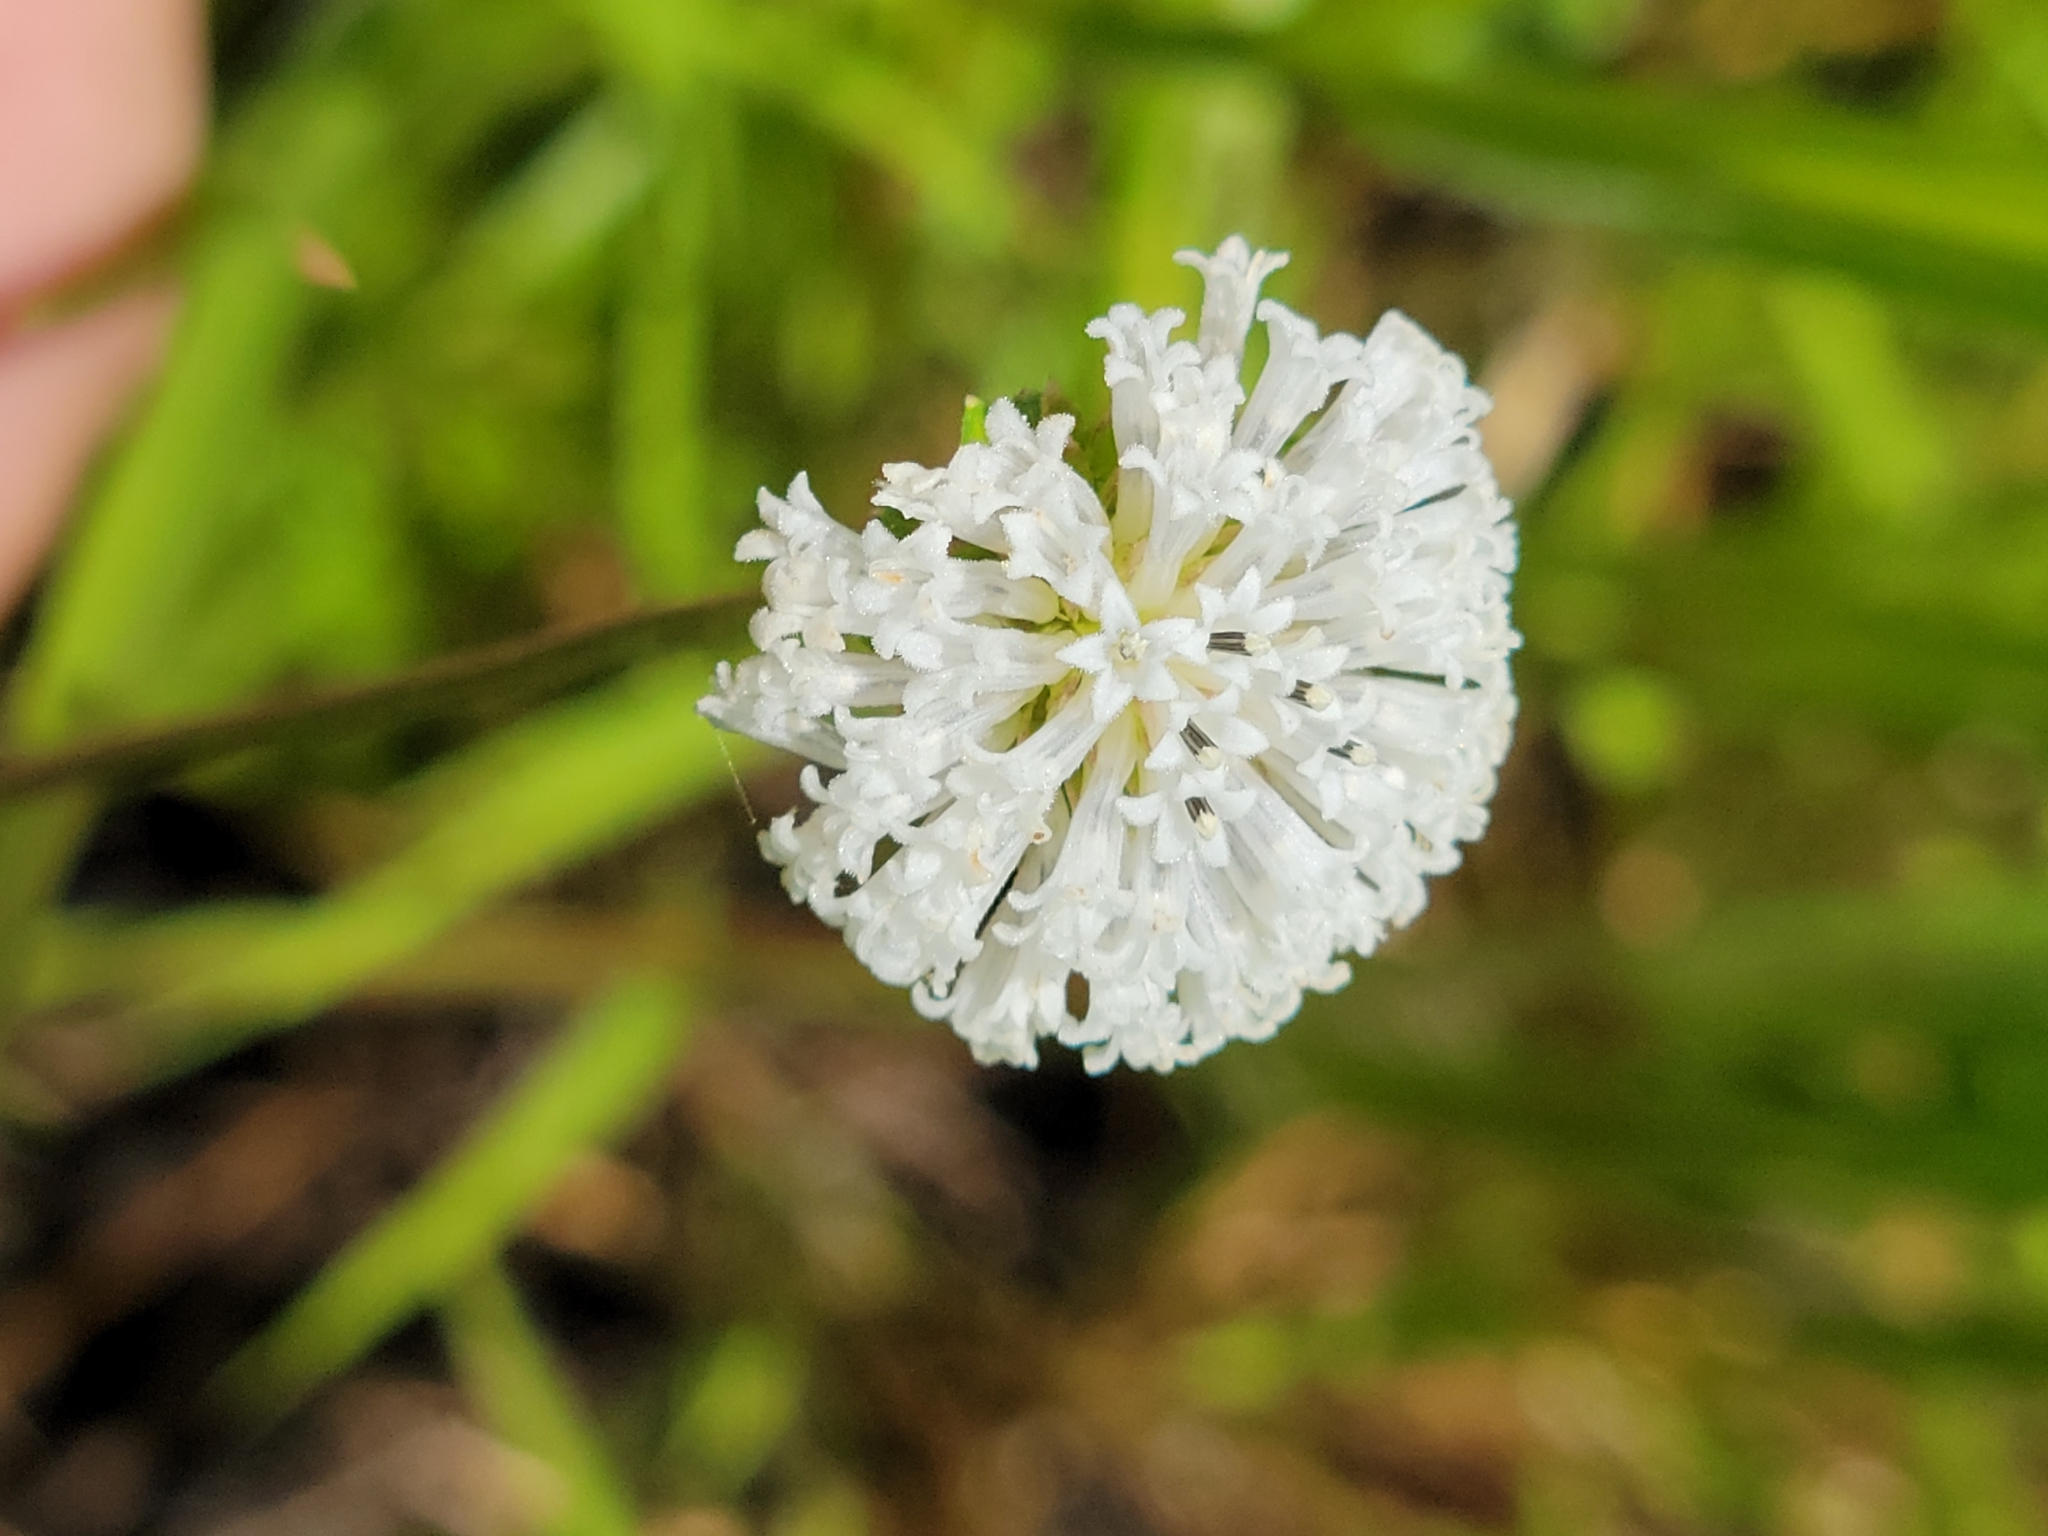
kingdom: Plantae
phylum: Tracheophyta
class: Magnoliopsida
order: Asterales
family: Asteraceae
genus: Melanthera
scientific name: Melanthera angustifolia
